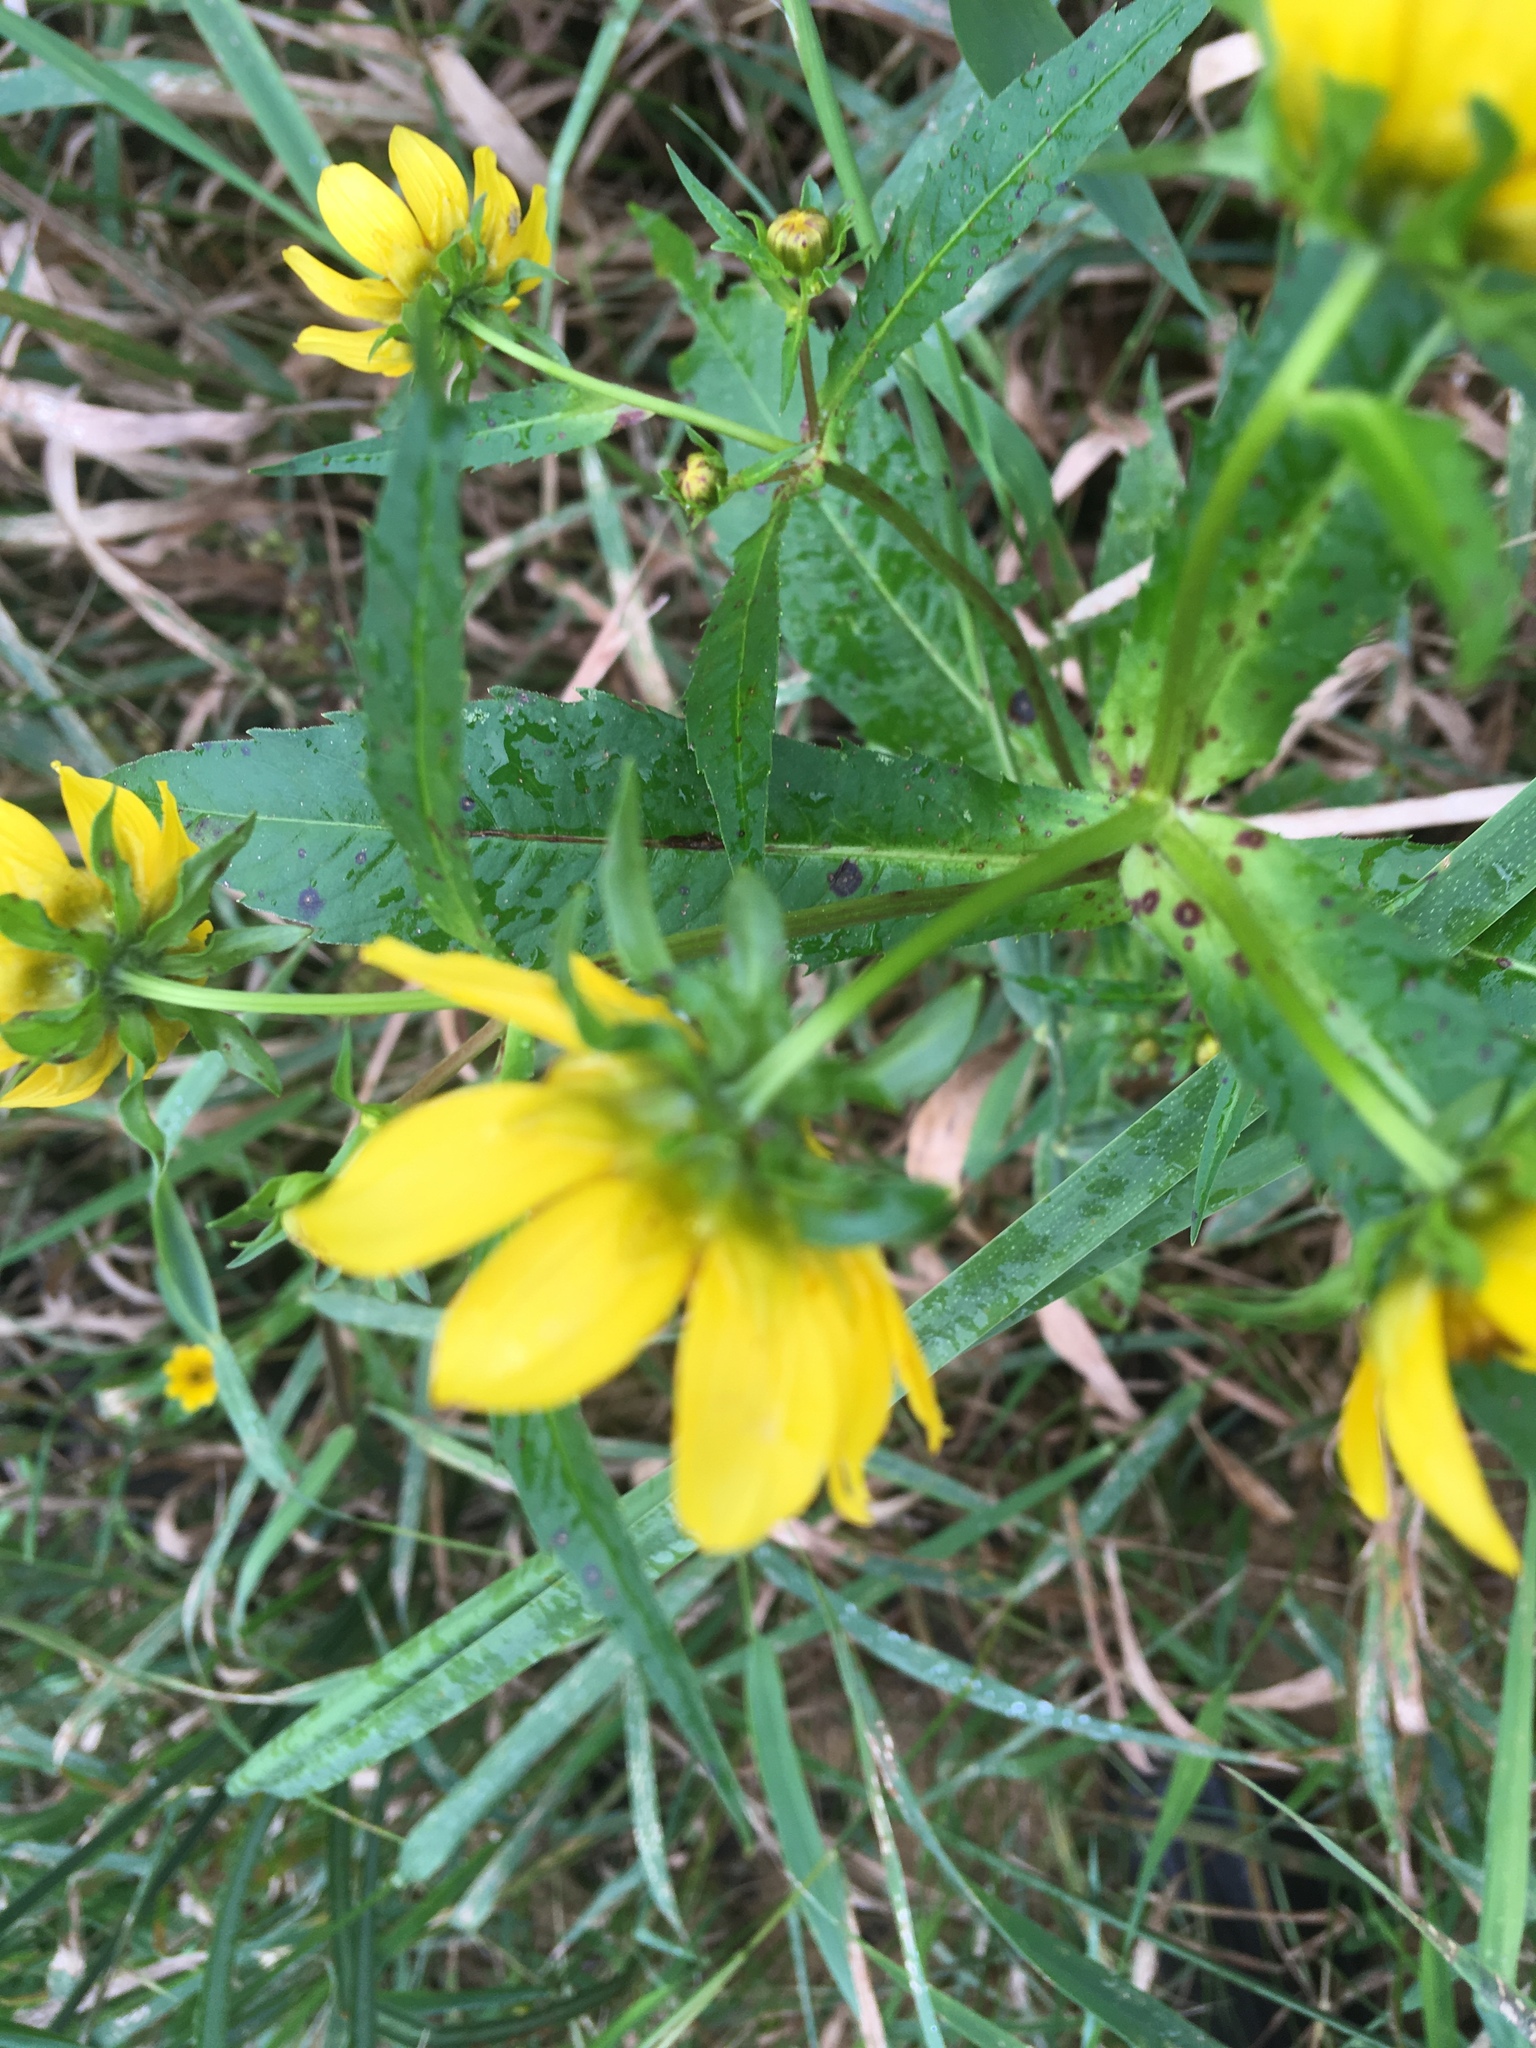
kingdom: Plantae
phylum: Tracheophyta
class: Magnoliopsida
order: Asterales
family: Asteraceae
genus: Bidens
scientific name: Bidens cernua
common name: Nodding bur-marigold
